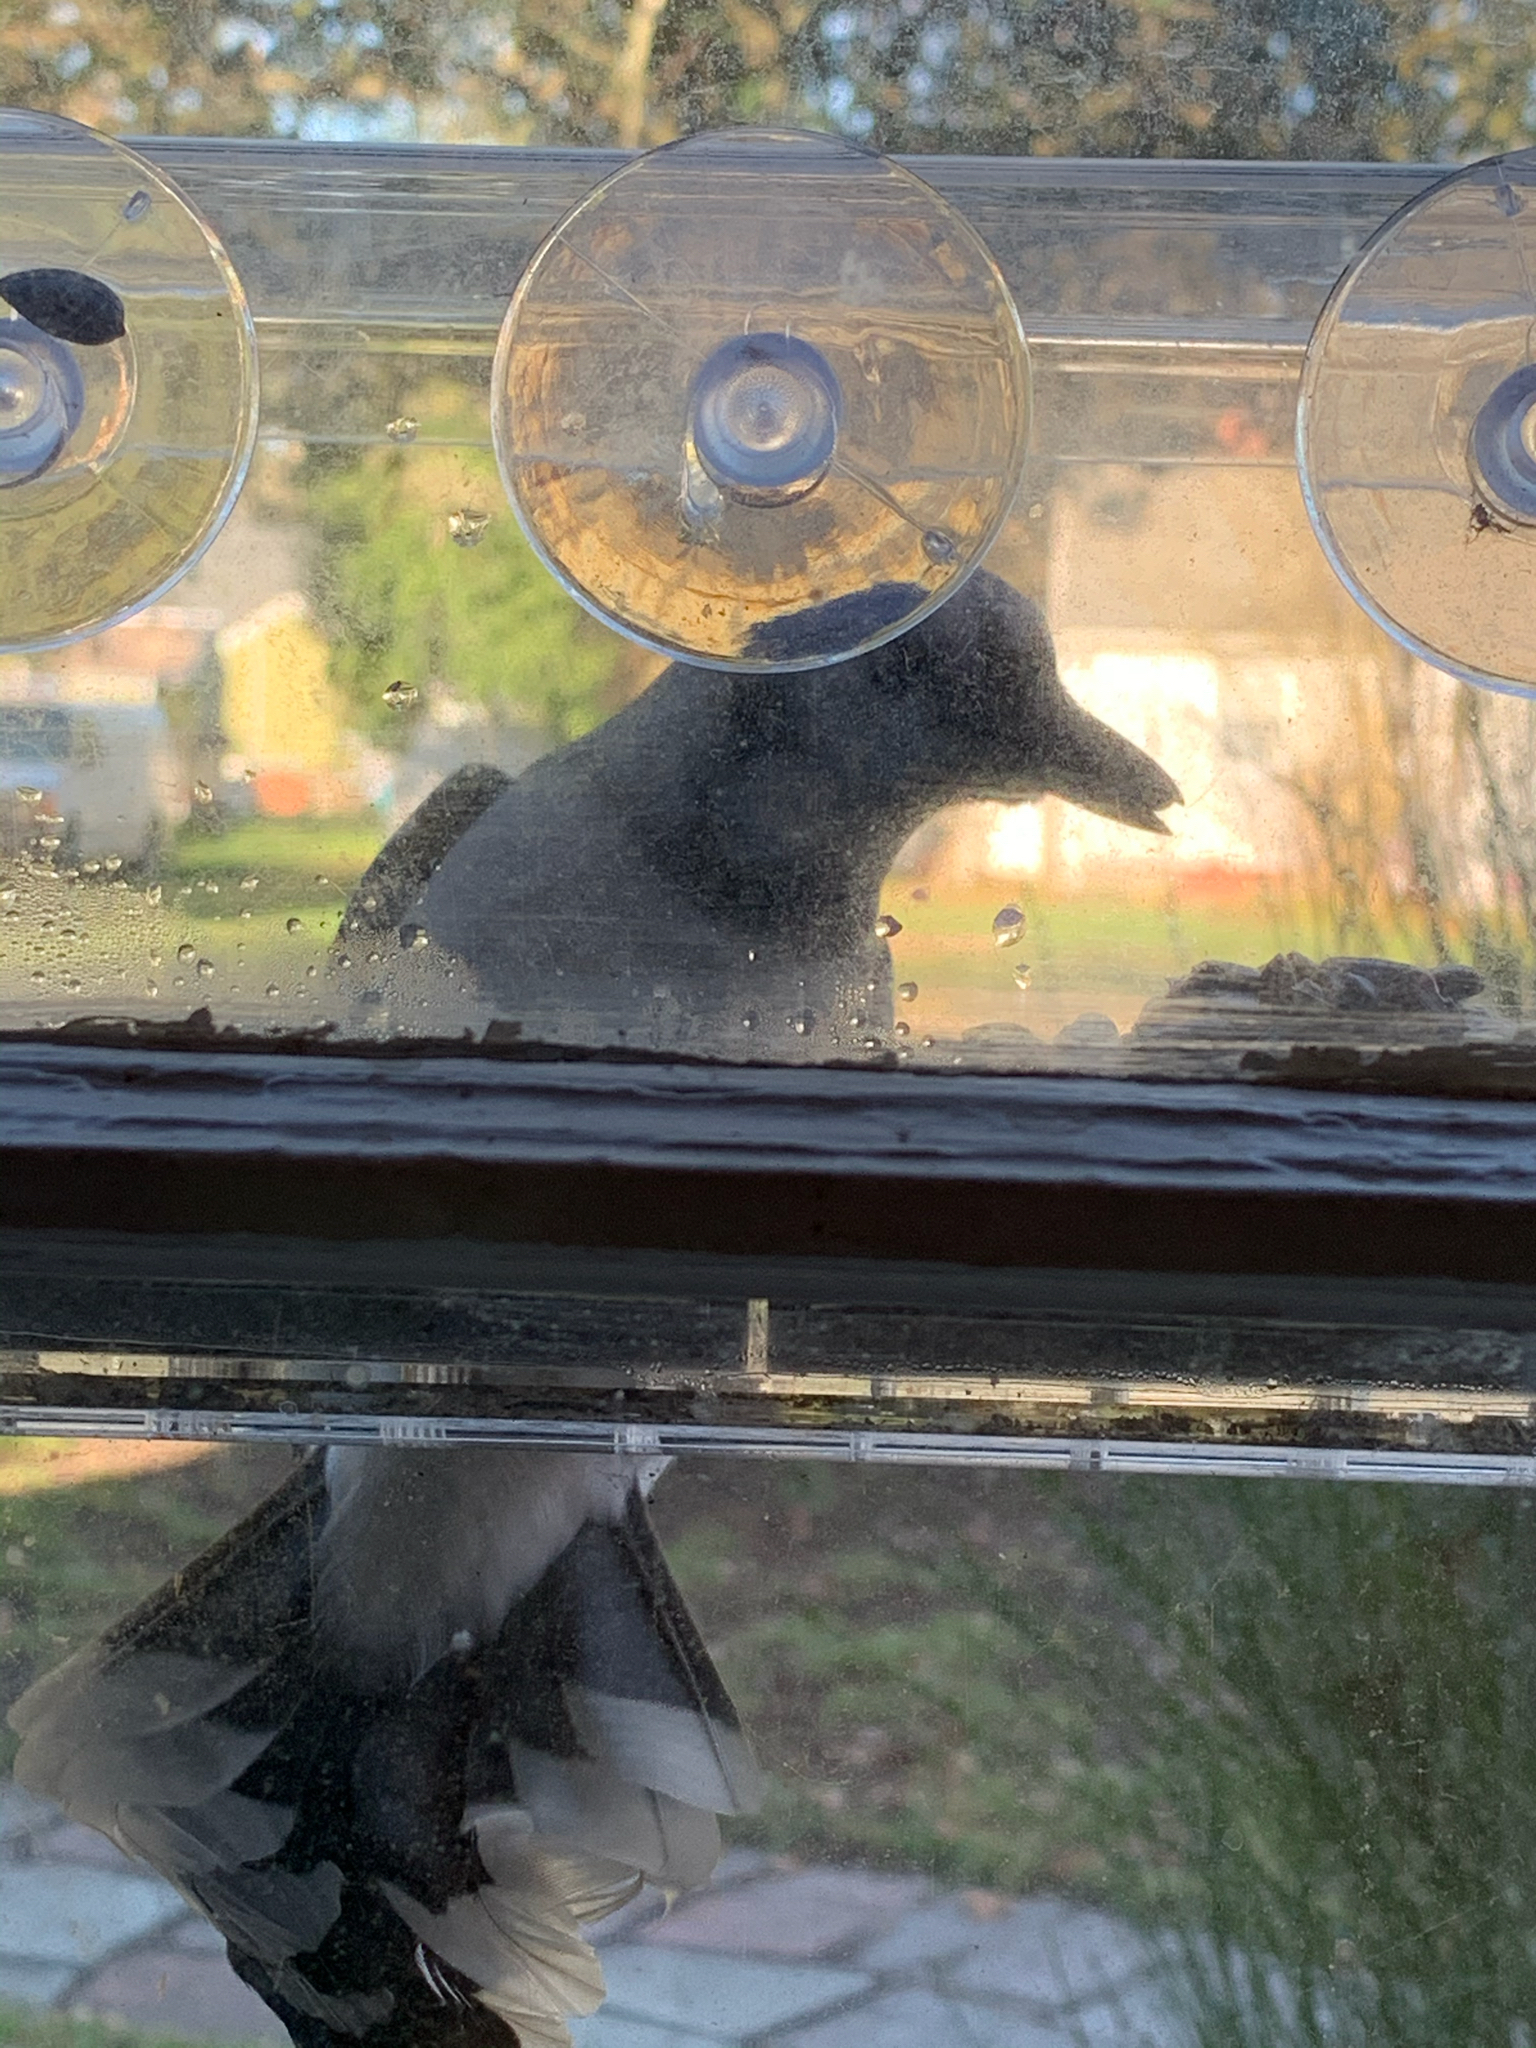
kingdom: Animalia
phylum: Chordata
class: Aves
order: Passeriformes
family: Corvidae
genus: Cyanocitta
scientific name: Cyanocitta cristata
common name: Blue jay
